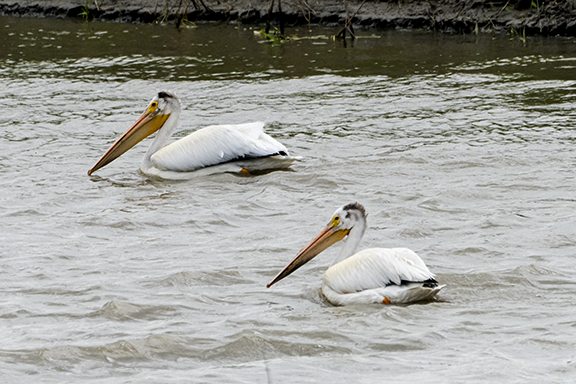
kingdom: Animalia
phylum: Chordata
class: Aves
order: Pelecaniformes
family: Pelecanidae
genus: Pelecanus
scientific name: Pelecanus erythrorhynchos
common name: American white pelican
